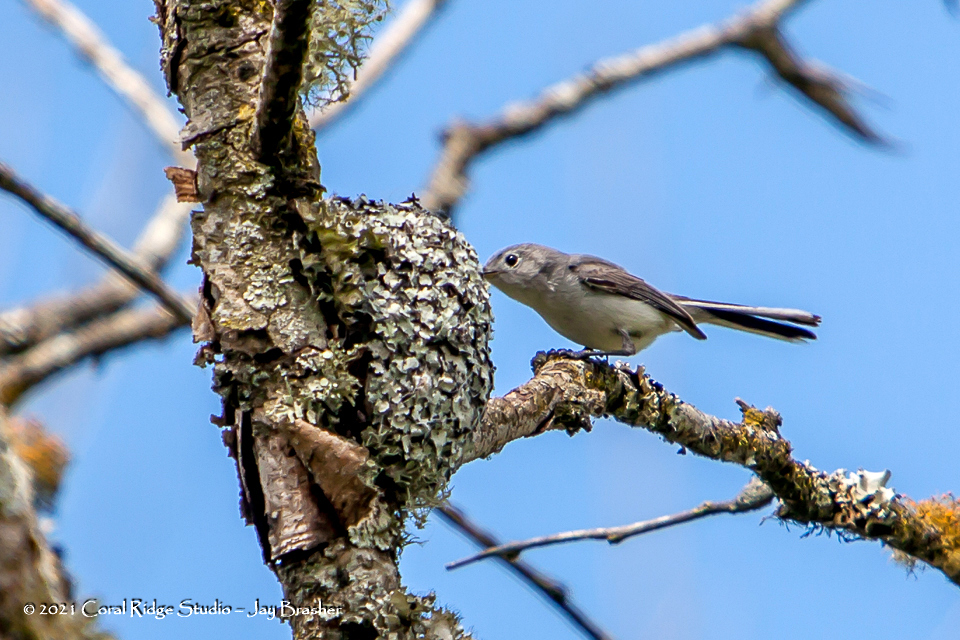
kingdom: Animalia
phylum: Chordata
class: Aves
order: Passeriformes
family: Polioptilidae
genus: Polioptila
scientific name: Polioptila caerulea
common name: Blue-gray gnatcatcher
